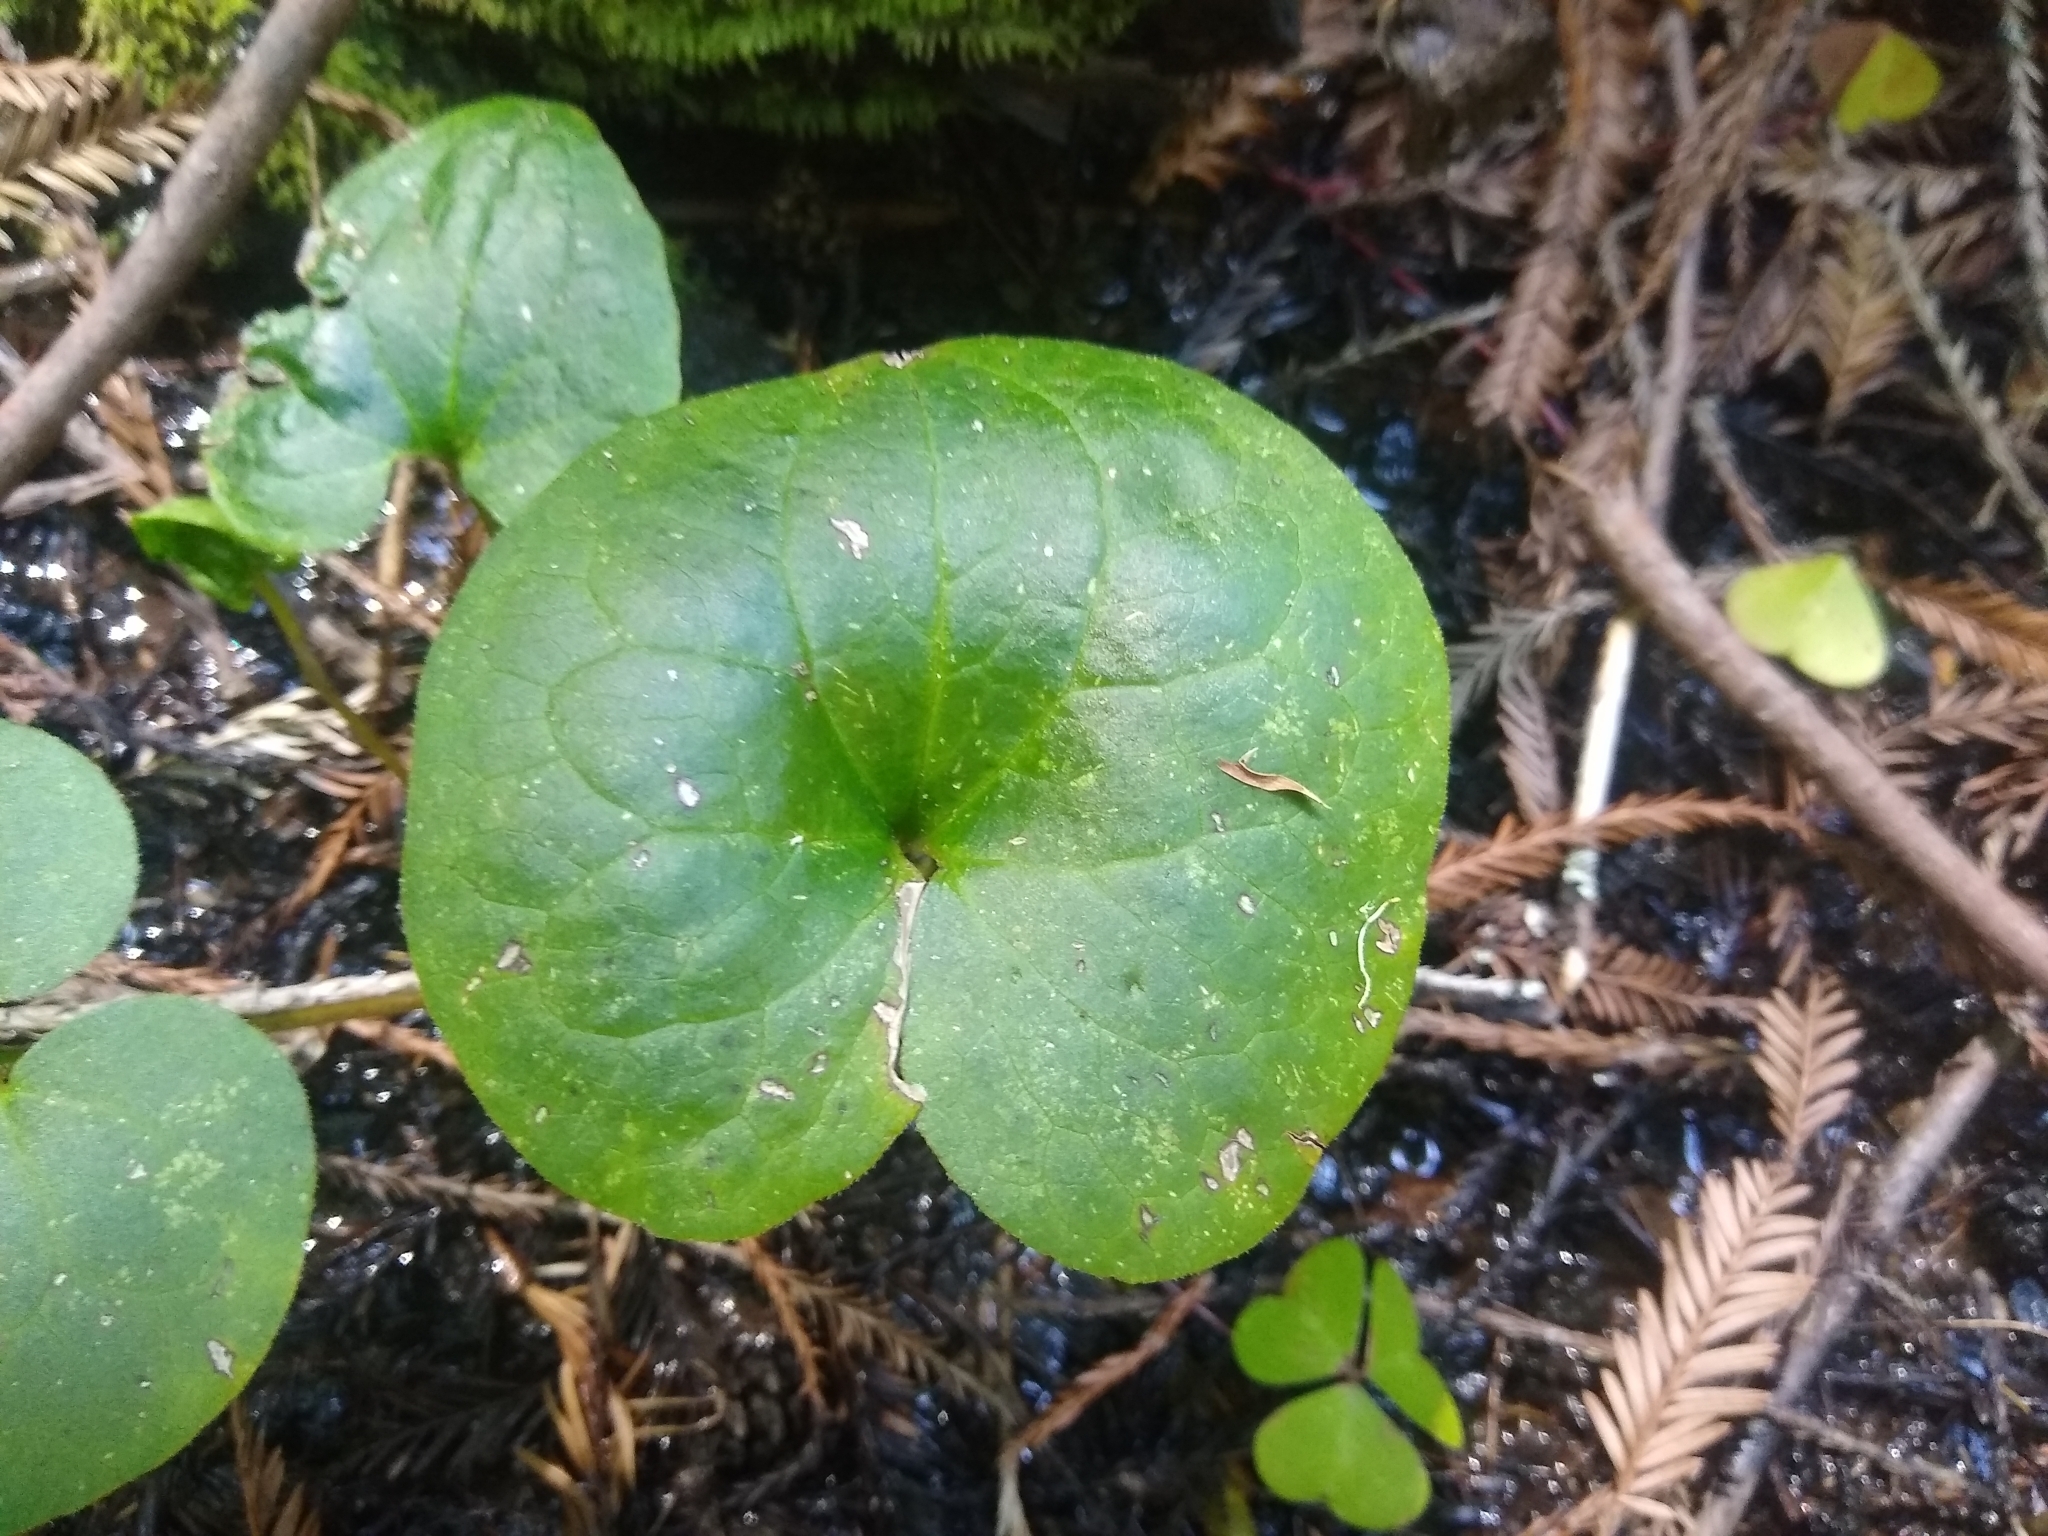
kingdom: Plantae
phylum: Tracheophyta
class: Magnoliopsida
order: Piperales
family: Aristolochiaceae
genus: Asarum
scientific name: Asarum caudatum
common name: Wild ginger
